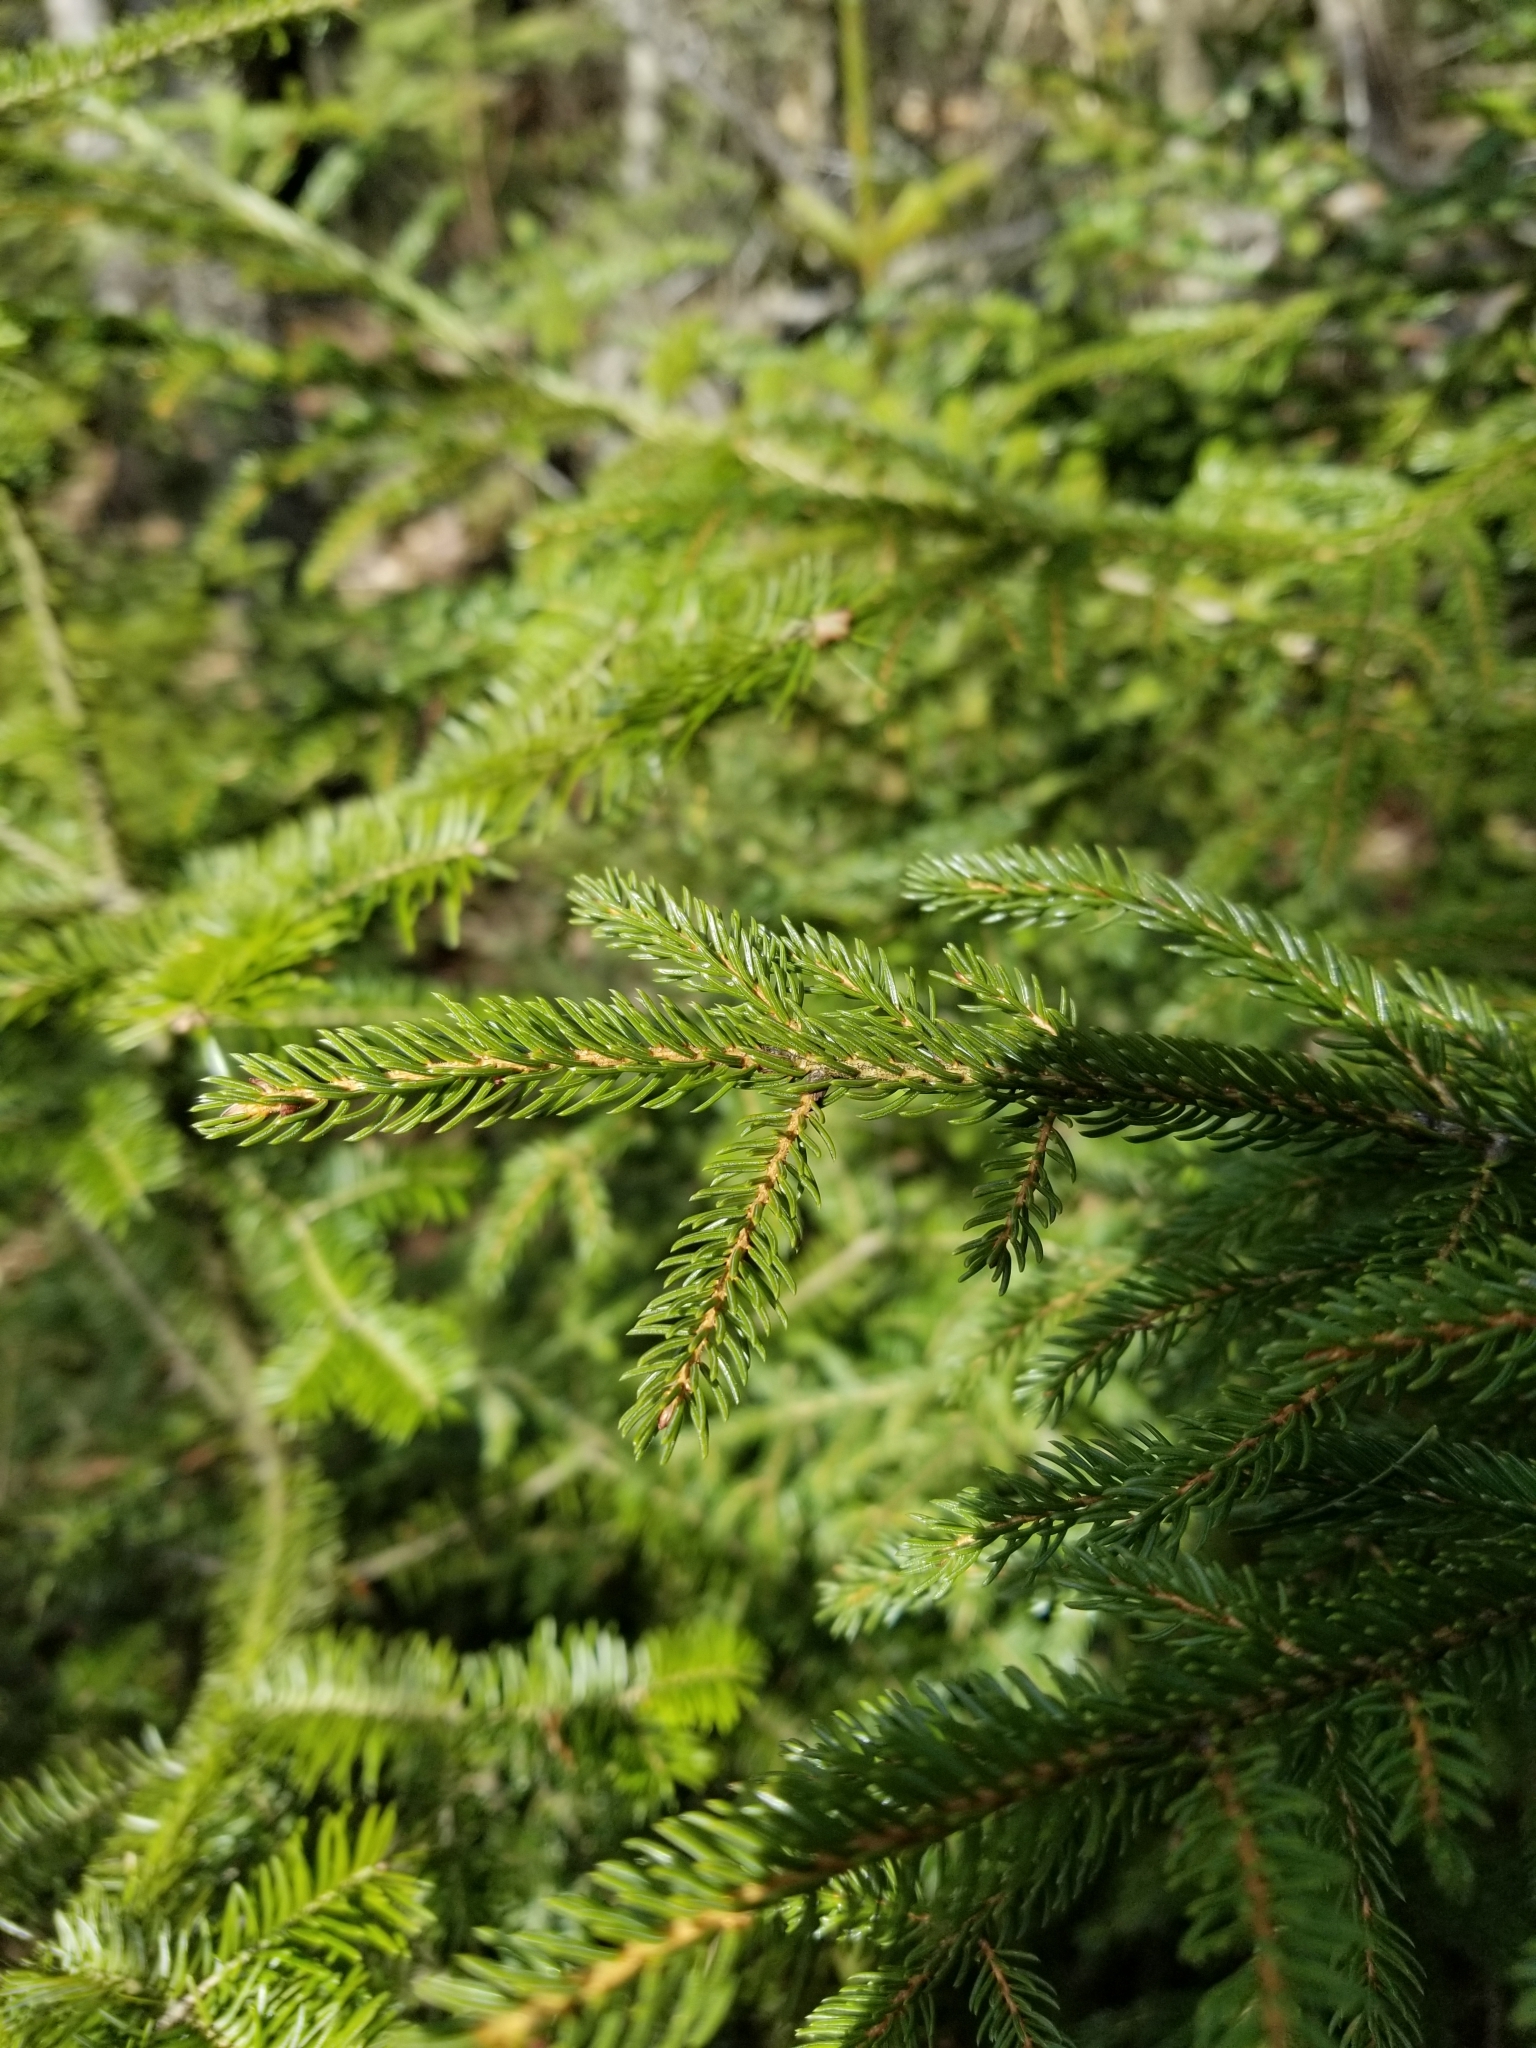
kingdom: Plantae
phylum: Tracheophyta
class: Pinopsida
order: Pinales
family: Pinaceae
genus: Picea
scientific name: Picea rubens
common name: Red spruce
